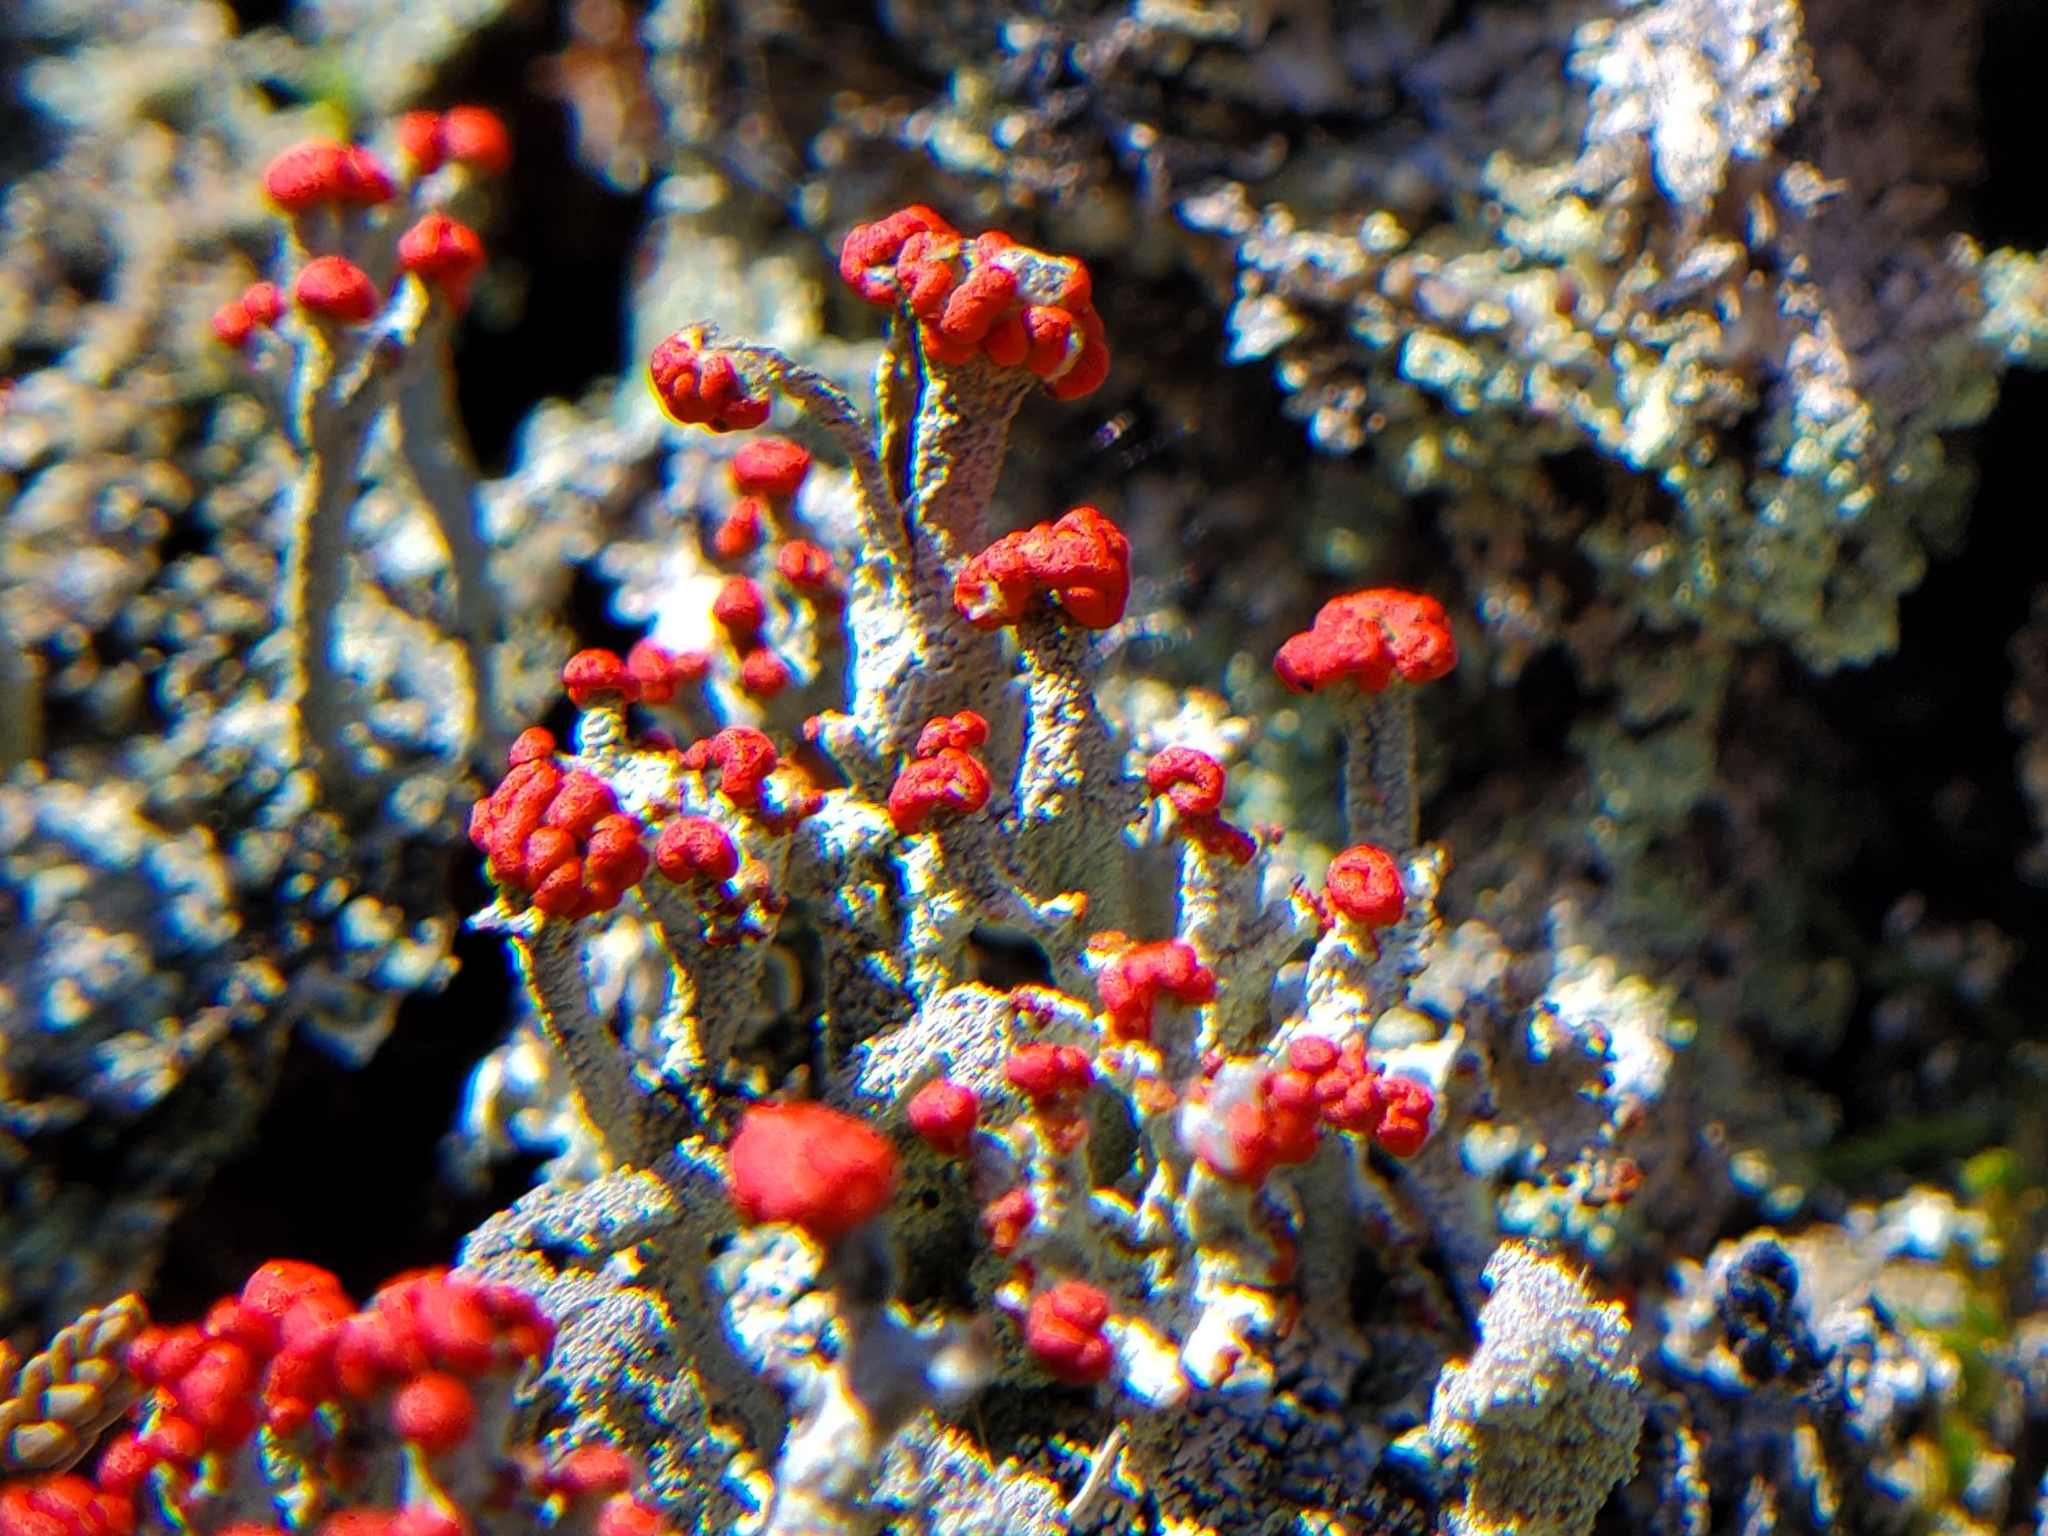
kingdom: Fungi
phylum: Ascomycota
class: Lecanoromycetes
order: Lecanorales
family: Cladoniaceae
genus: Cladonia
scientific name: Cladonia cristatella
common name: British soldier lichen
